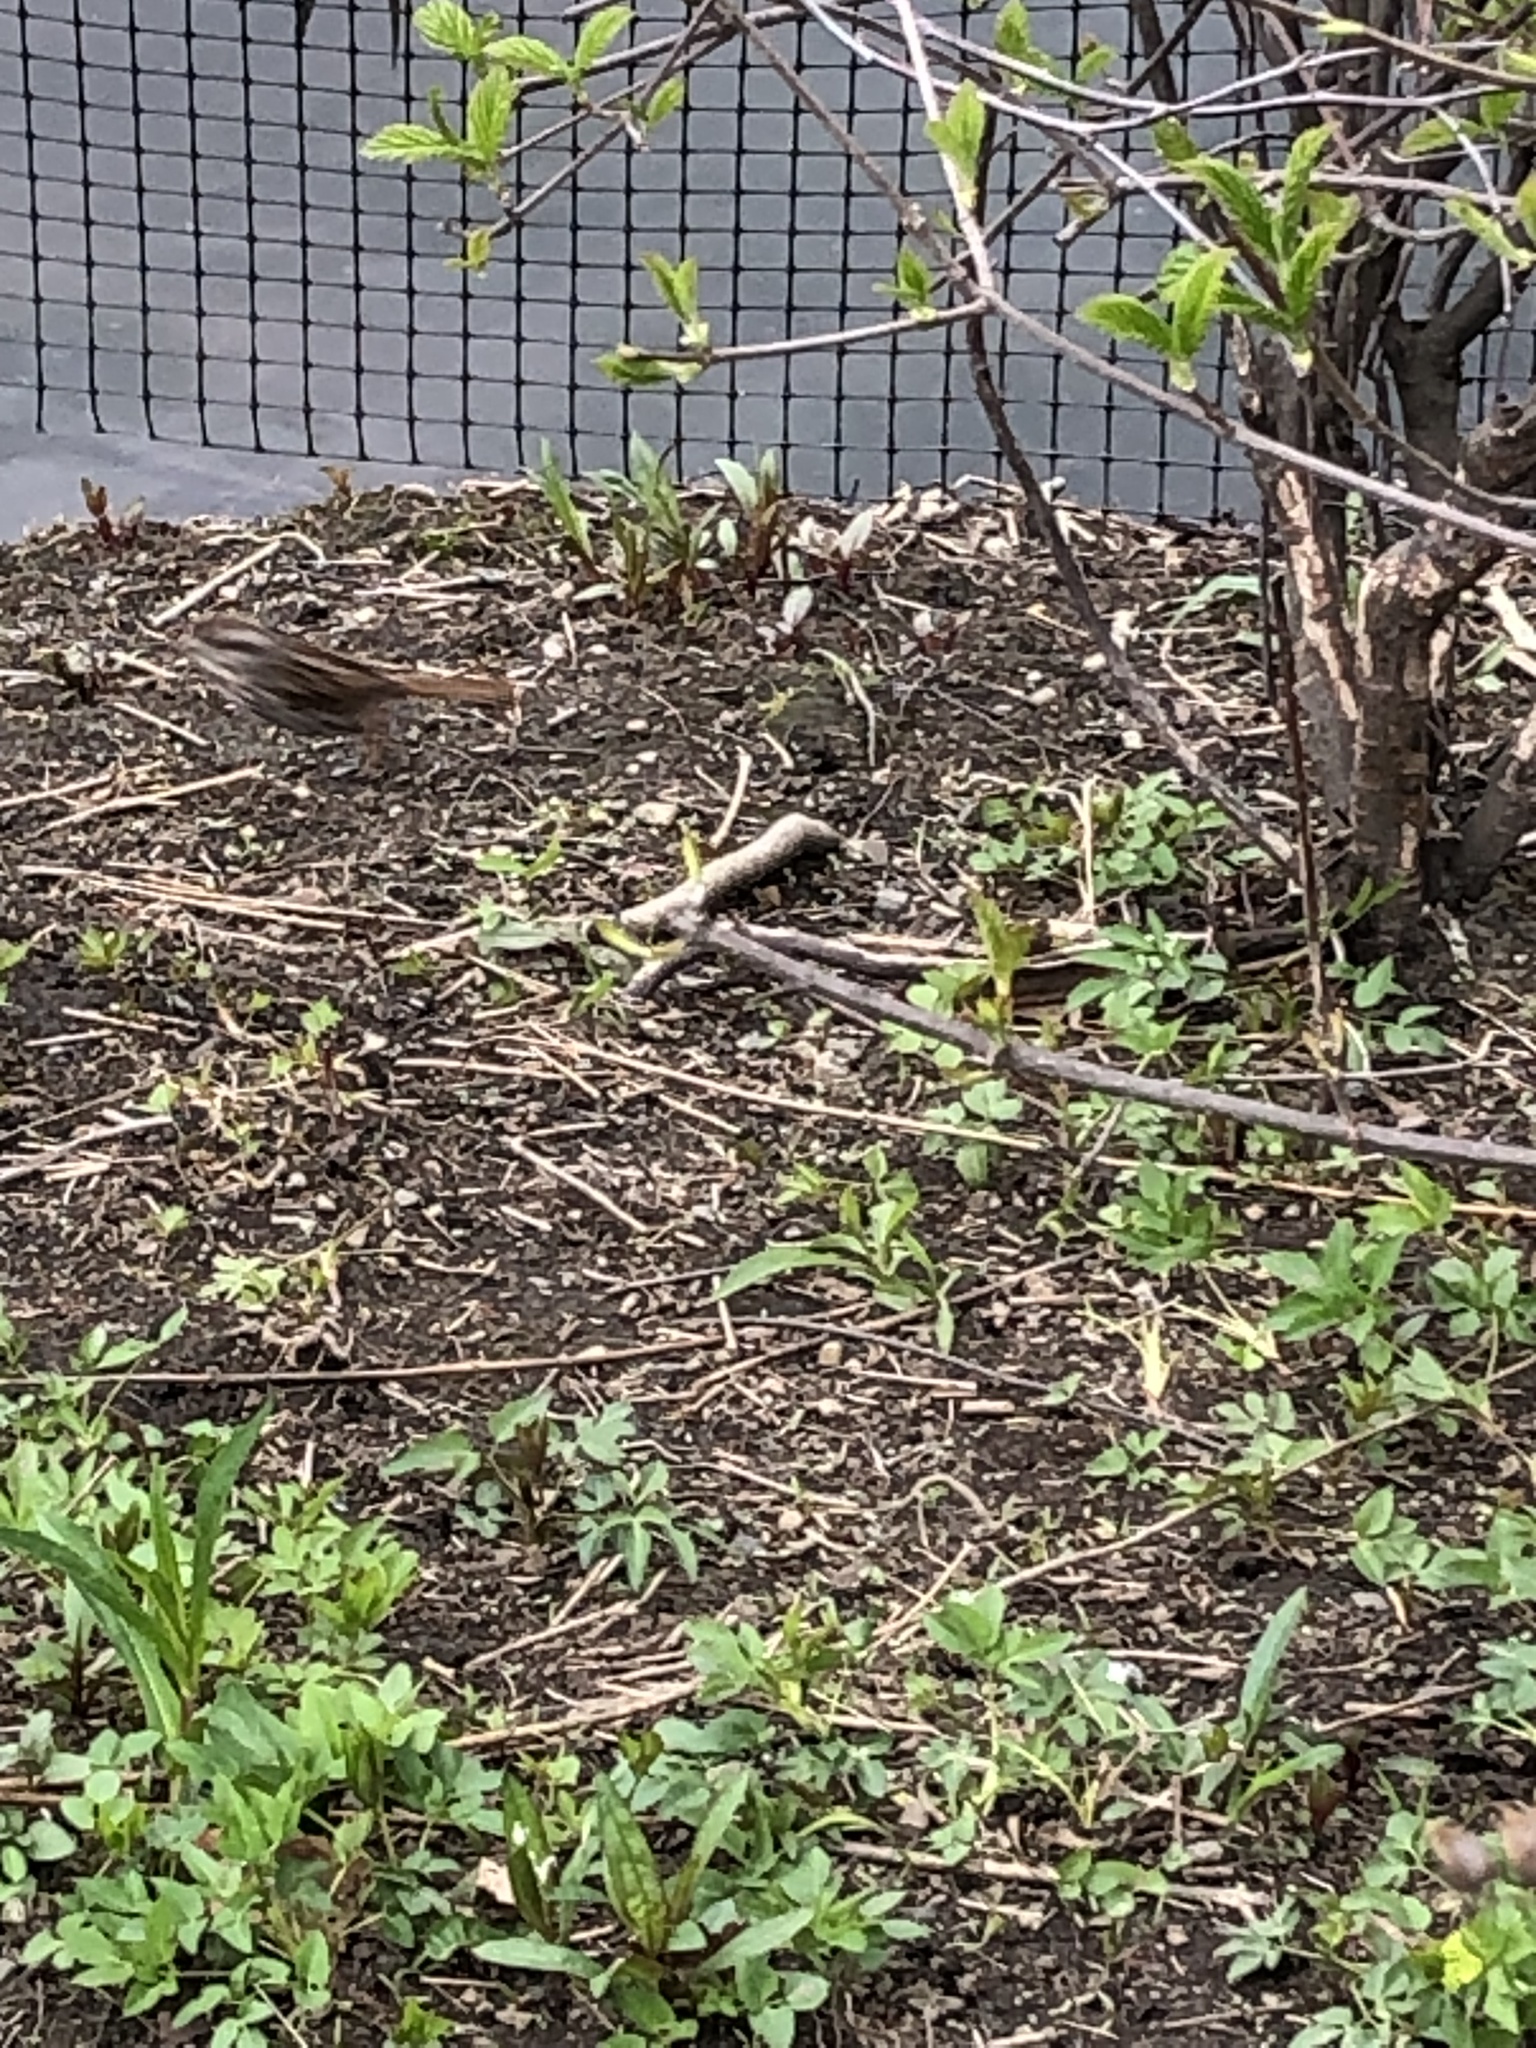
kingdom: Animalia
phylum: Chordata
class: Aves
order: Passeriformes
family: Passerellidae
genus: Melospiza
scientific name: Melospiza melodia
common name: Song sparrow
